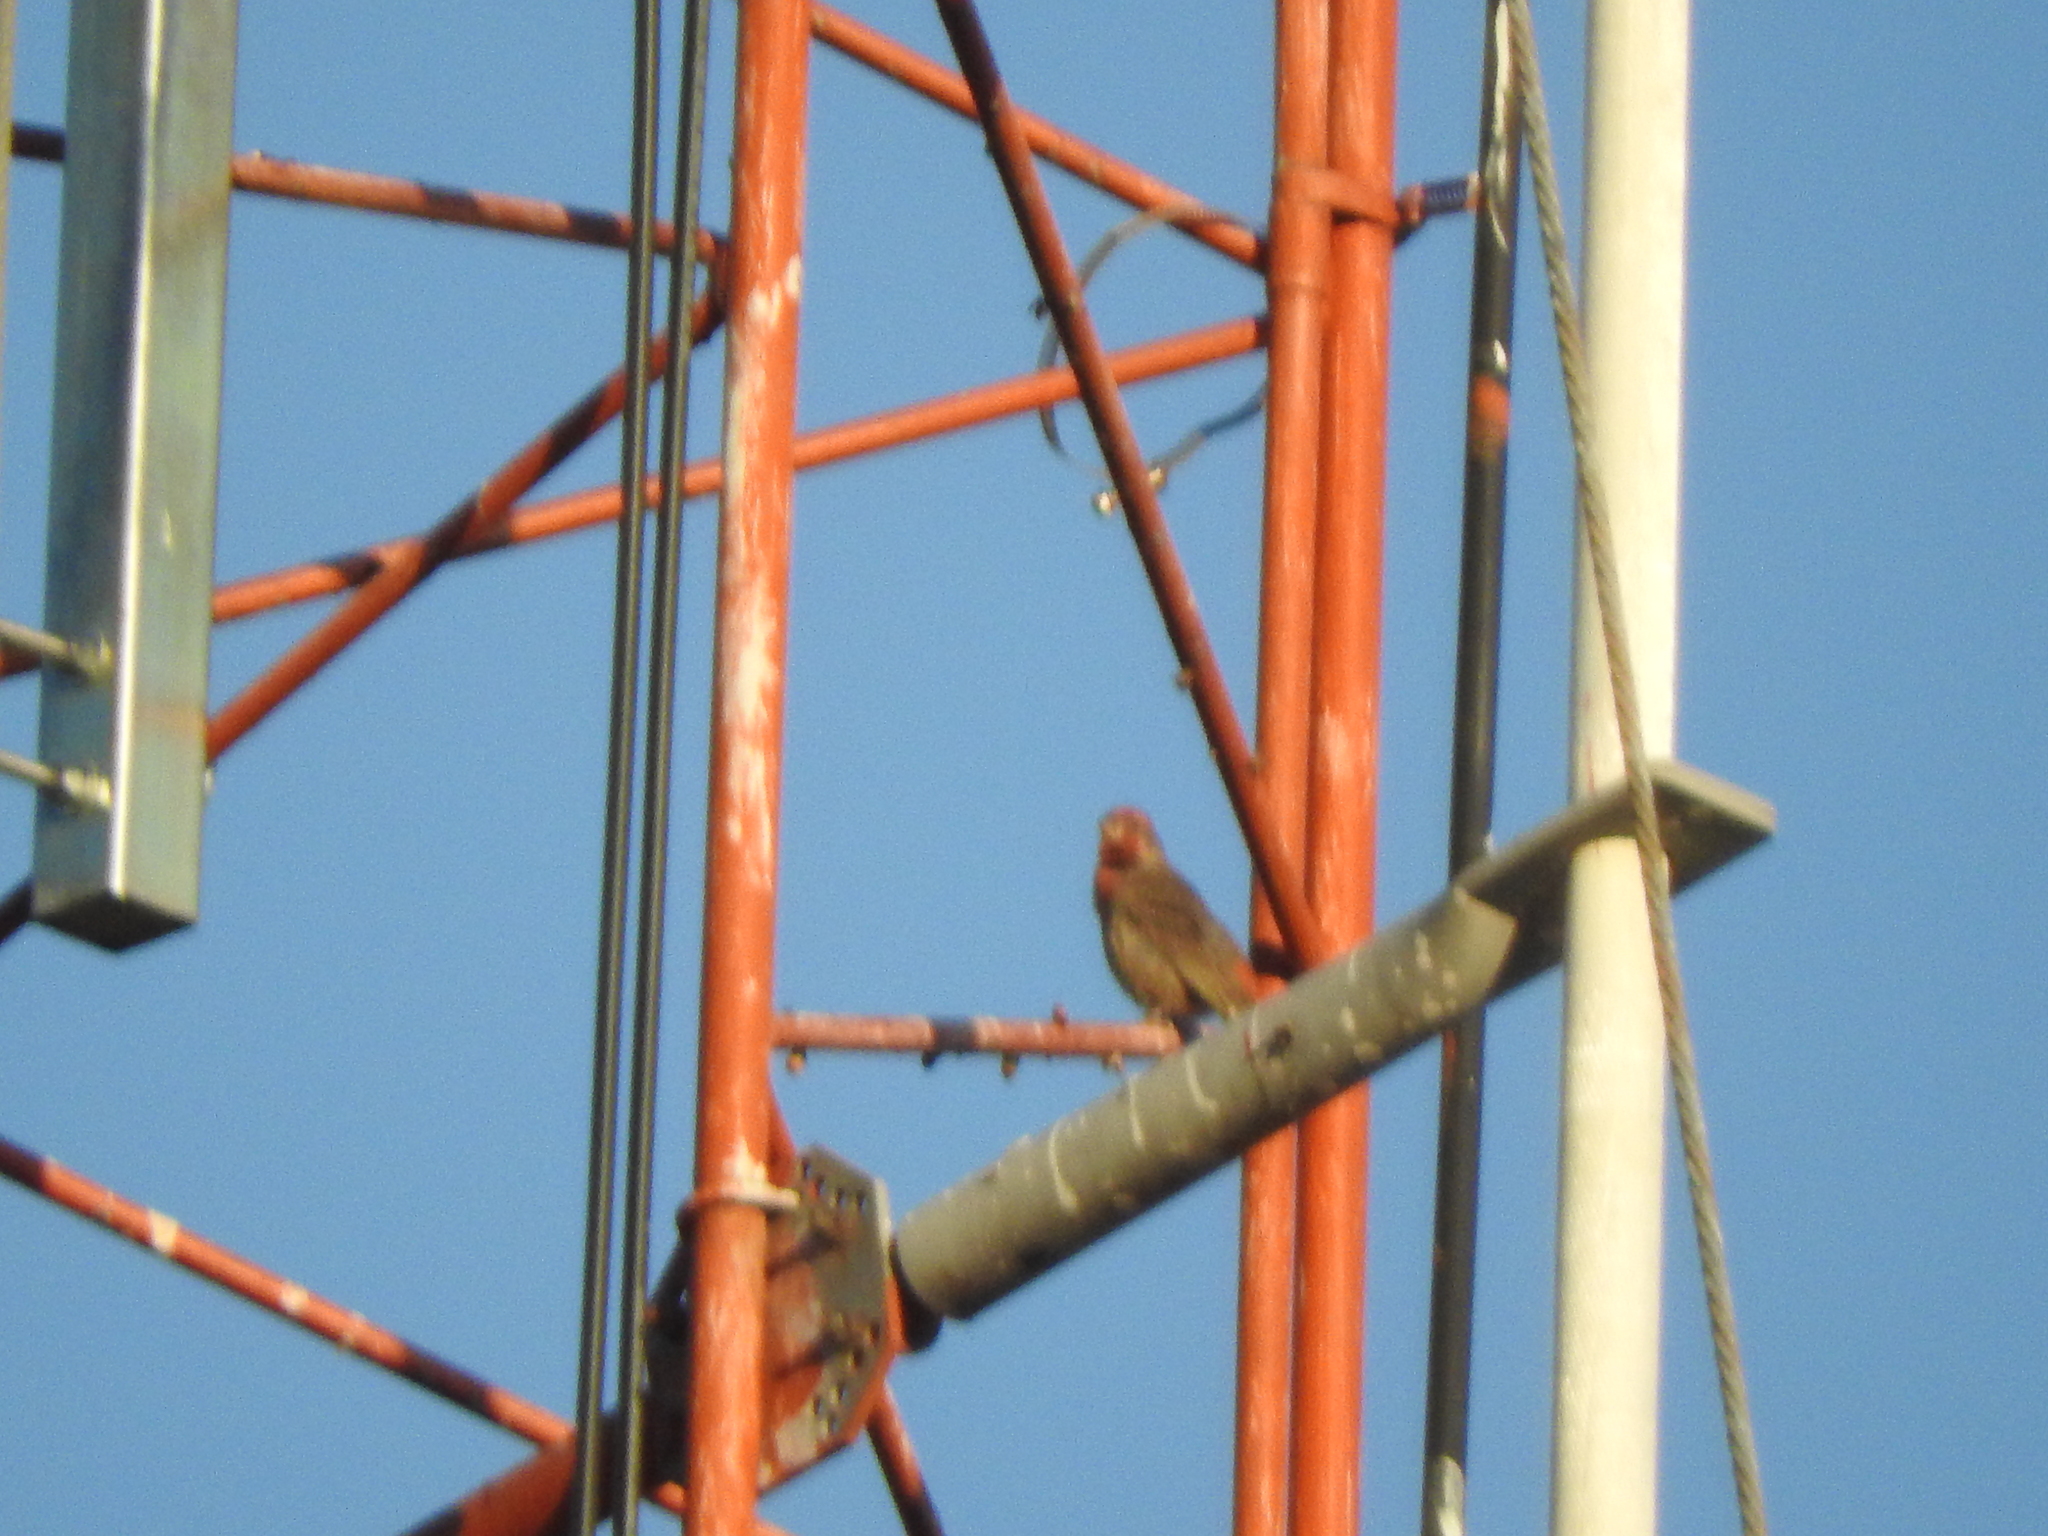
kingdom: Animalia
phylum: Chordata
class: Aves
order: Passeriformes
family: Fringillidae
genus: Haemorhous
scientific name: Haemorhous mexicanus
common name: House finch
